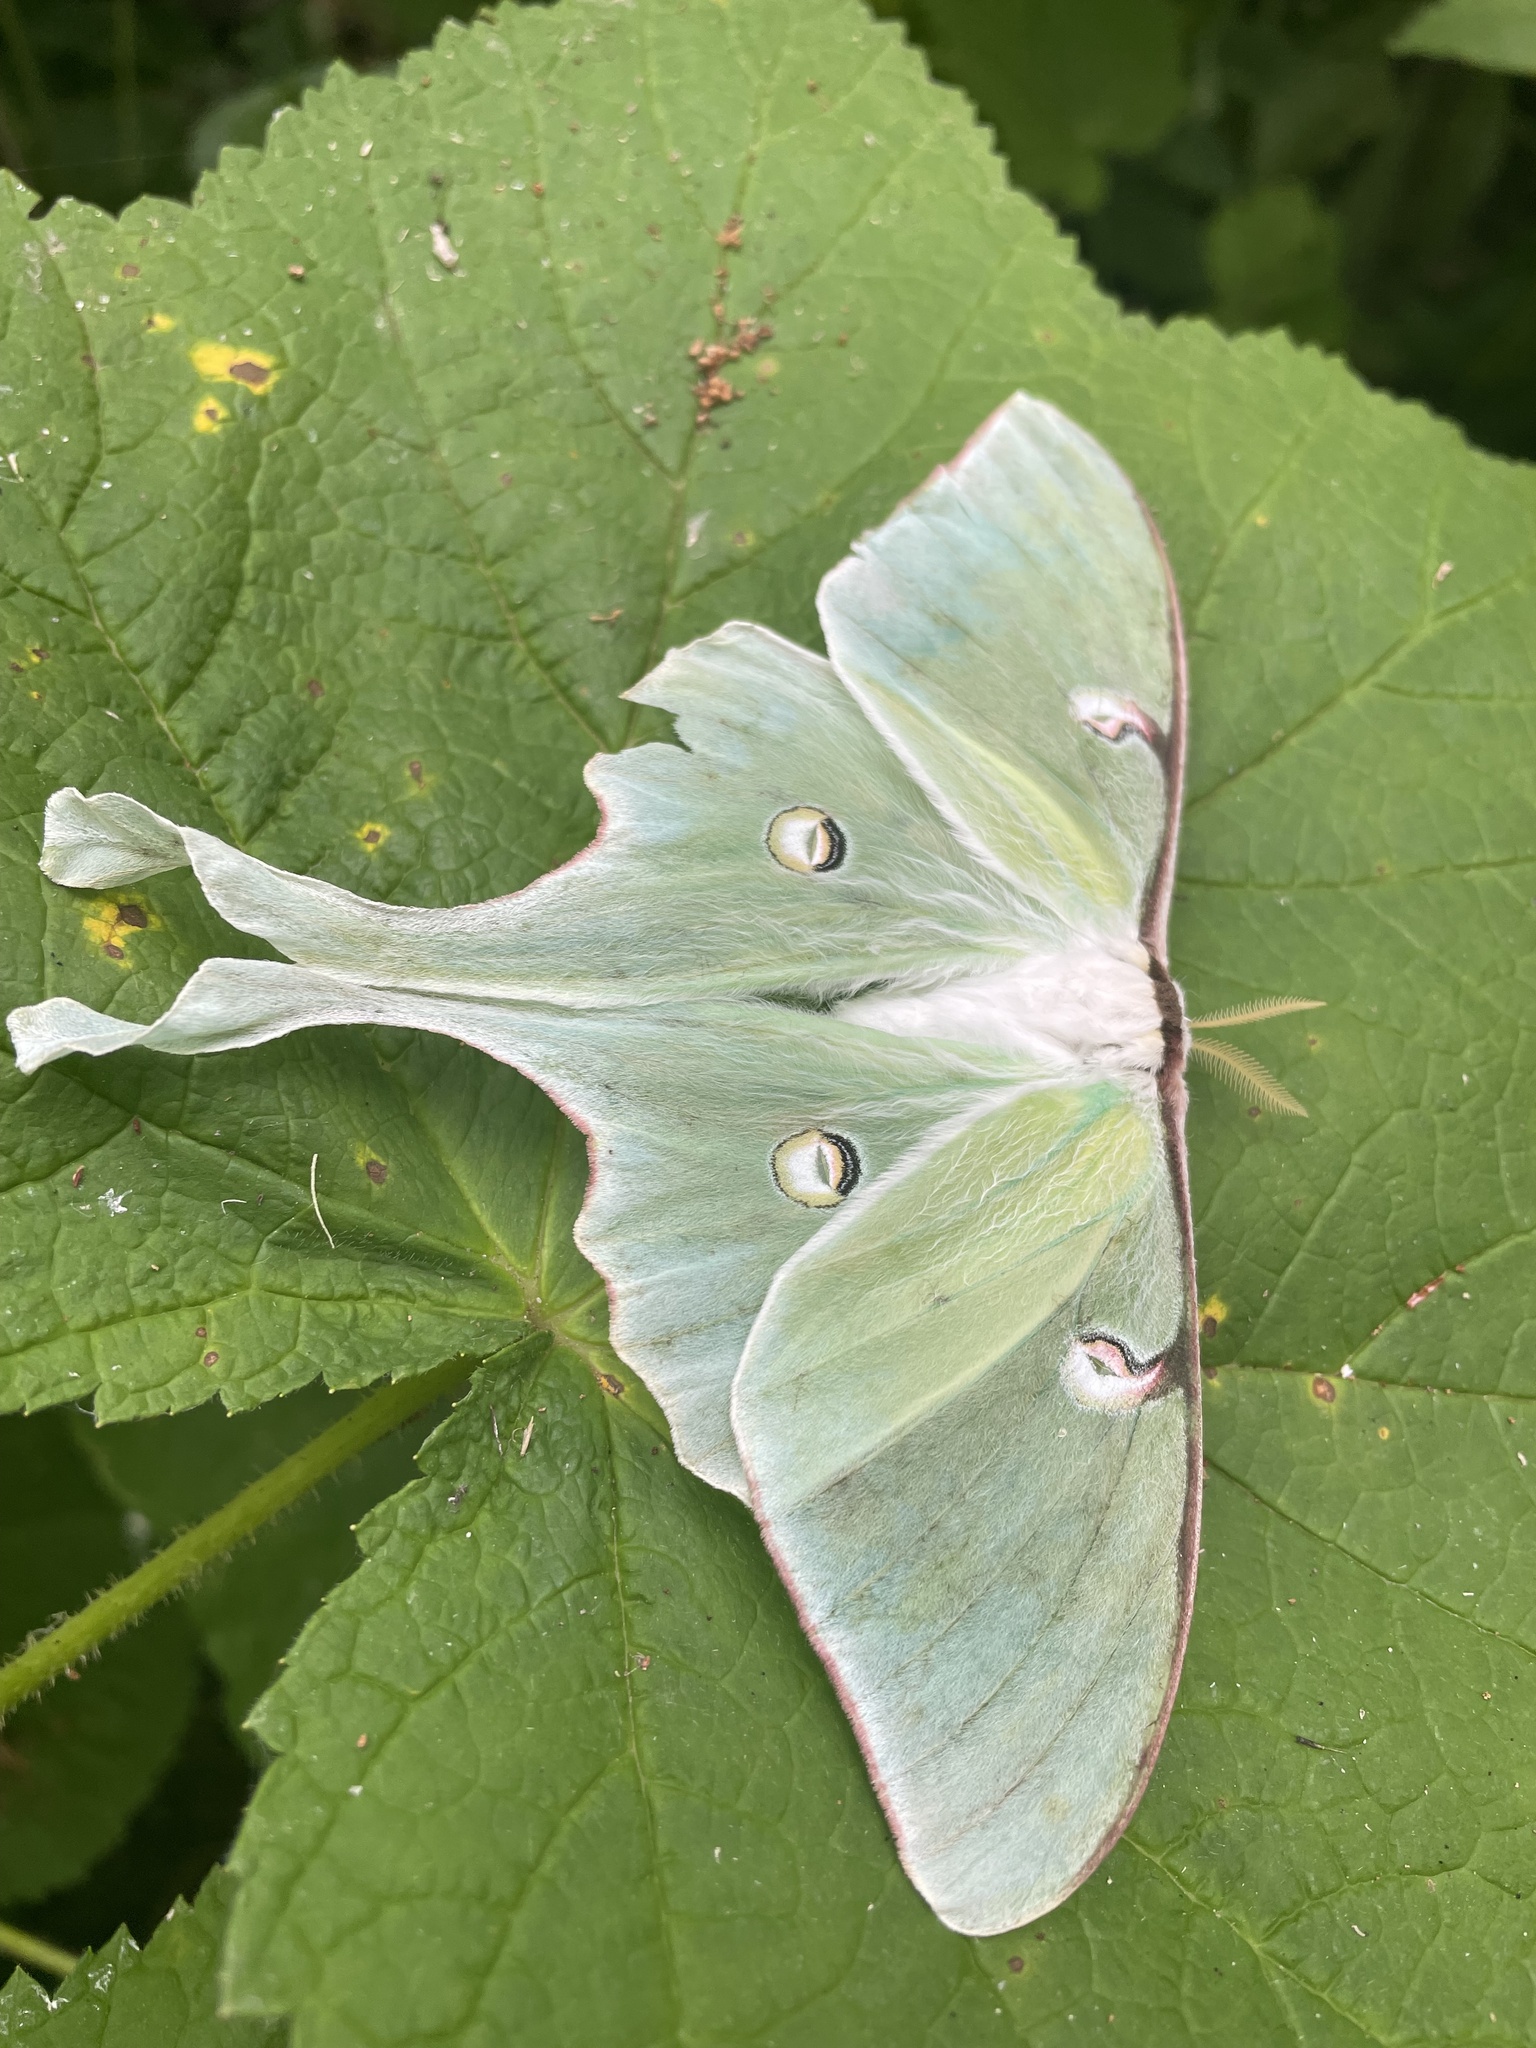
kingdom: Animalia
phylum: Arthropoda
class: Insecta
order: Lepidoptera
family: Saturniidae
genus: Actias
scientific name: Actias luna
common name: Luna moth
